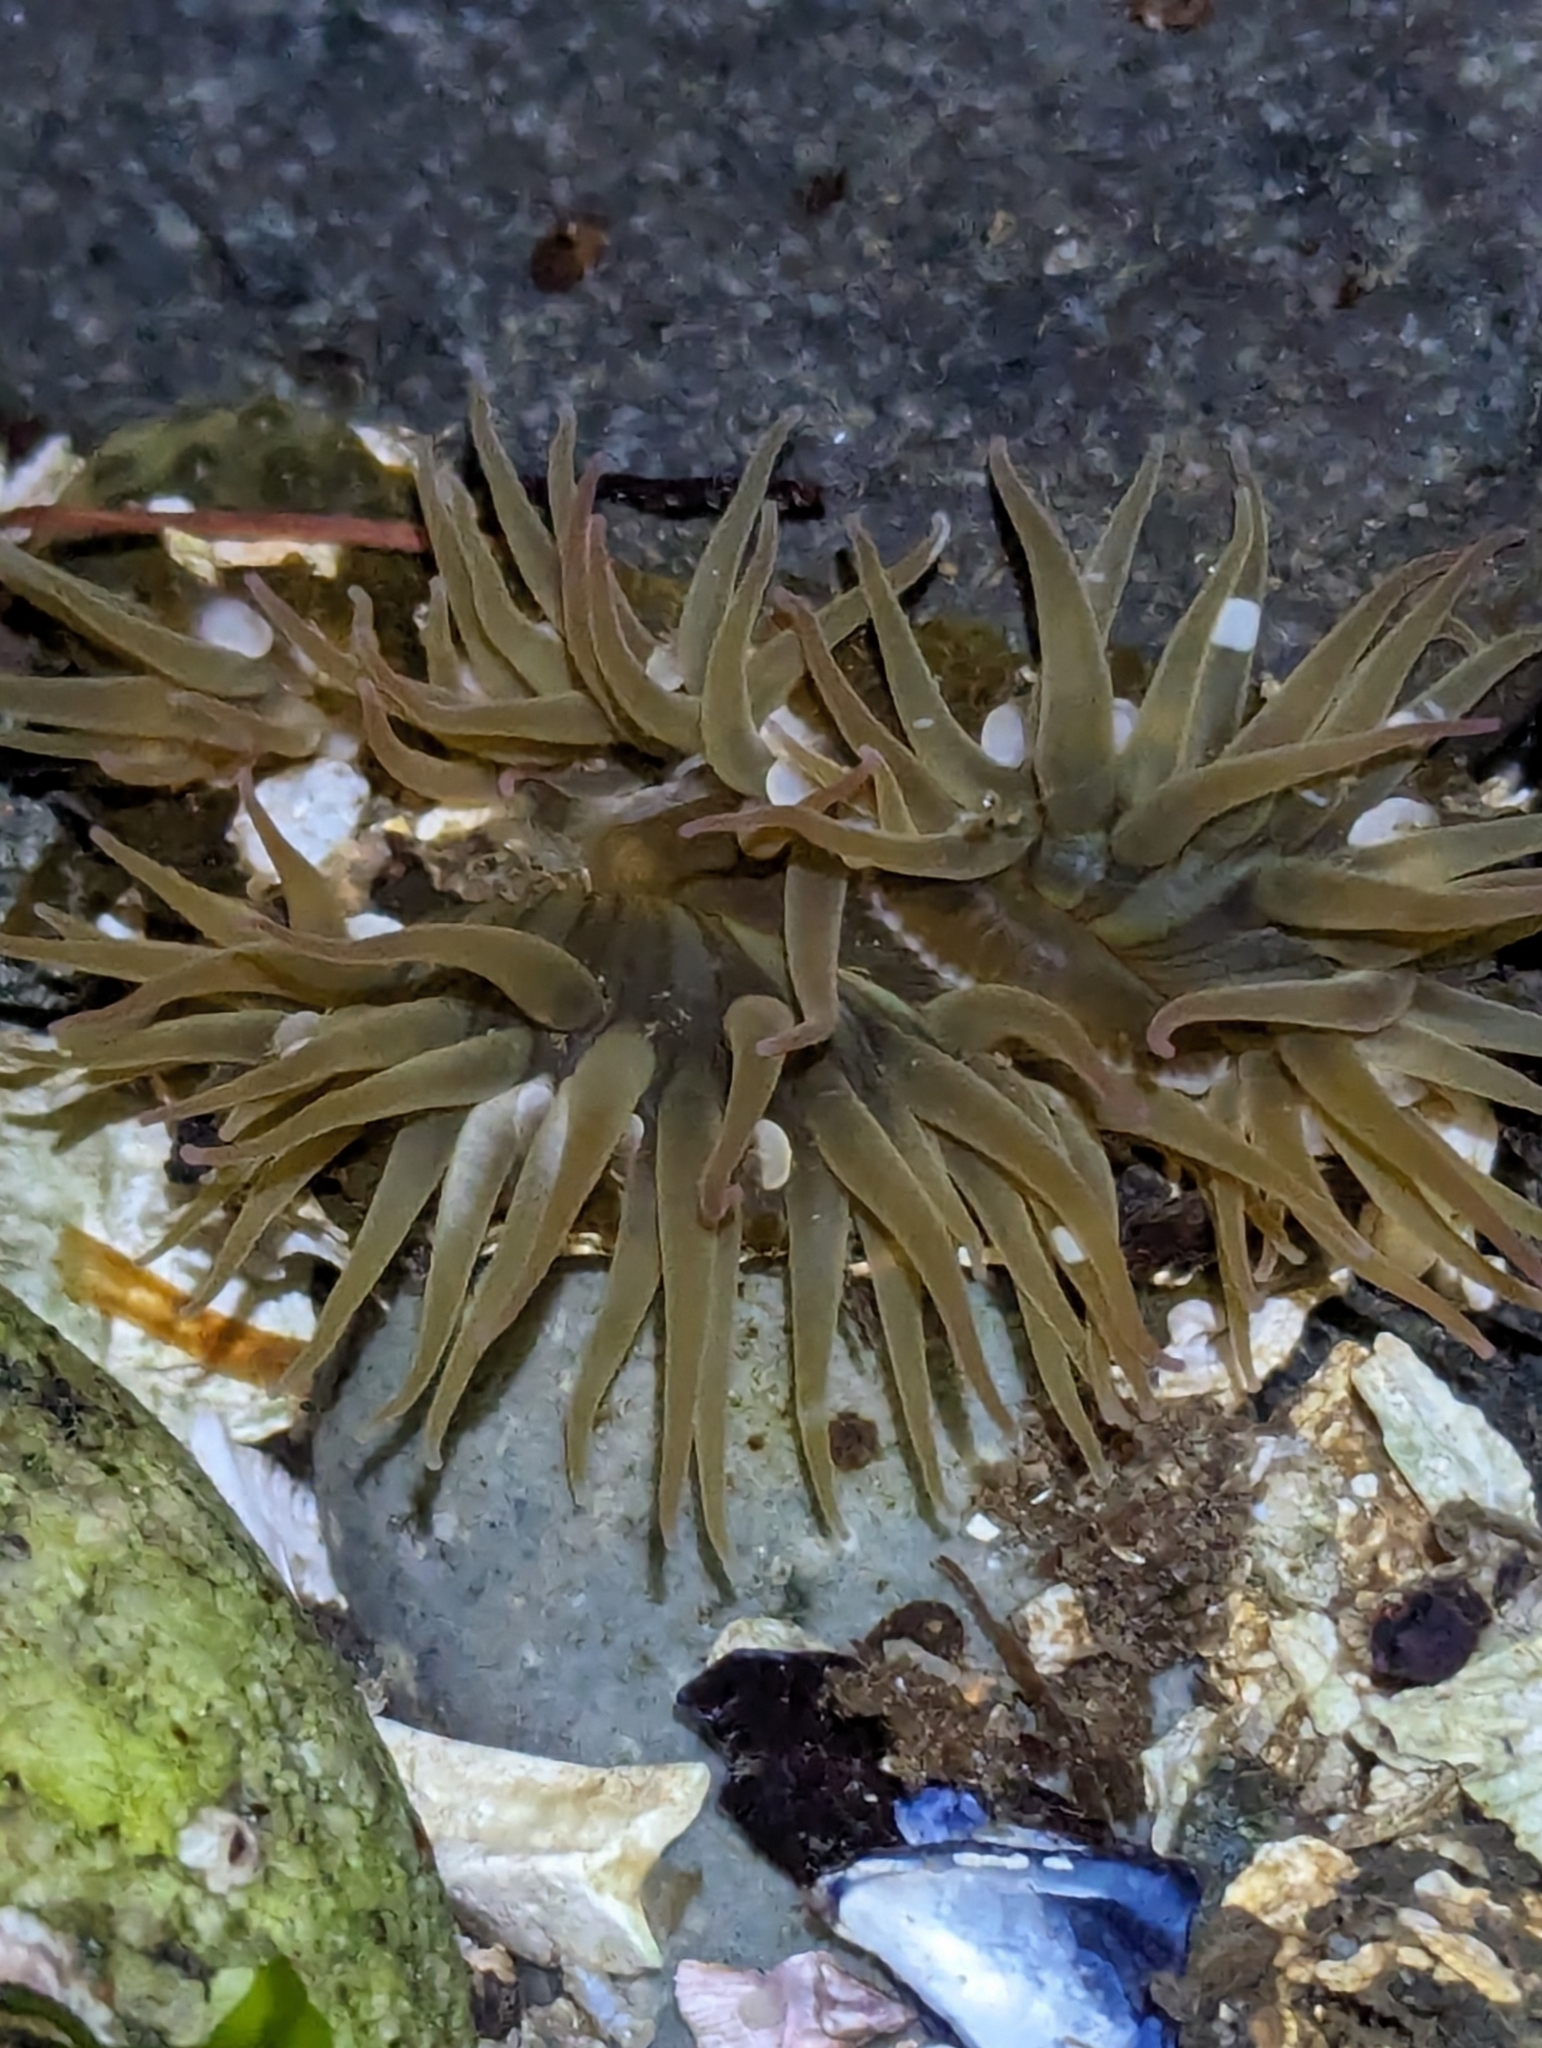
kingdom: Animalia
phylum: Cnidaria
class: Anthozoa
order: Actiniaria
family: Actiniidae
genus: Anthopleura
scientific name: Anthopleura elegantissima
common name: Clonal anemone
